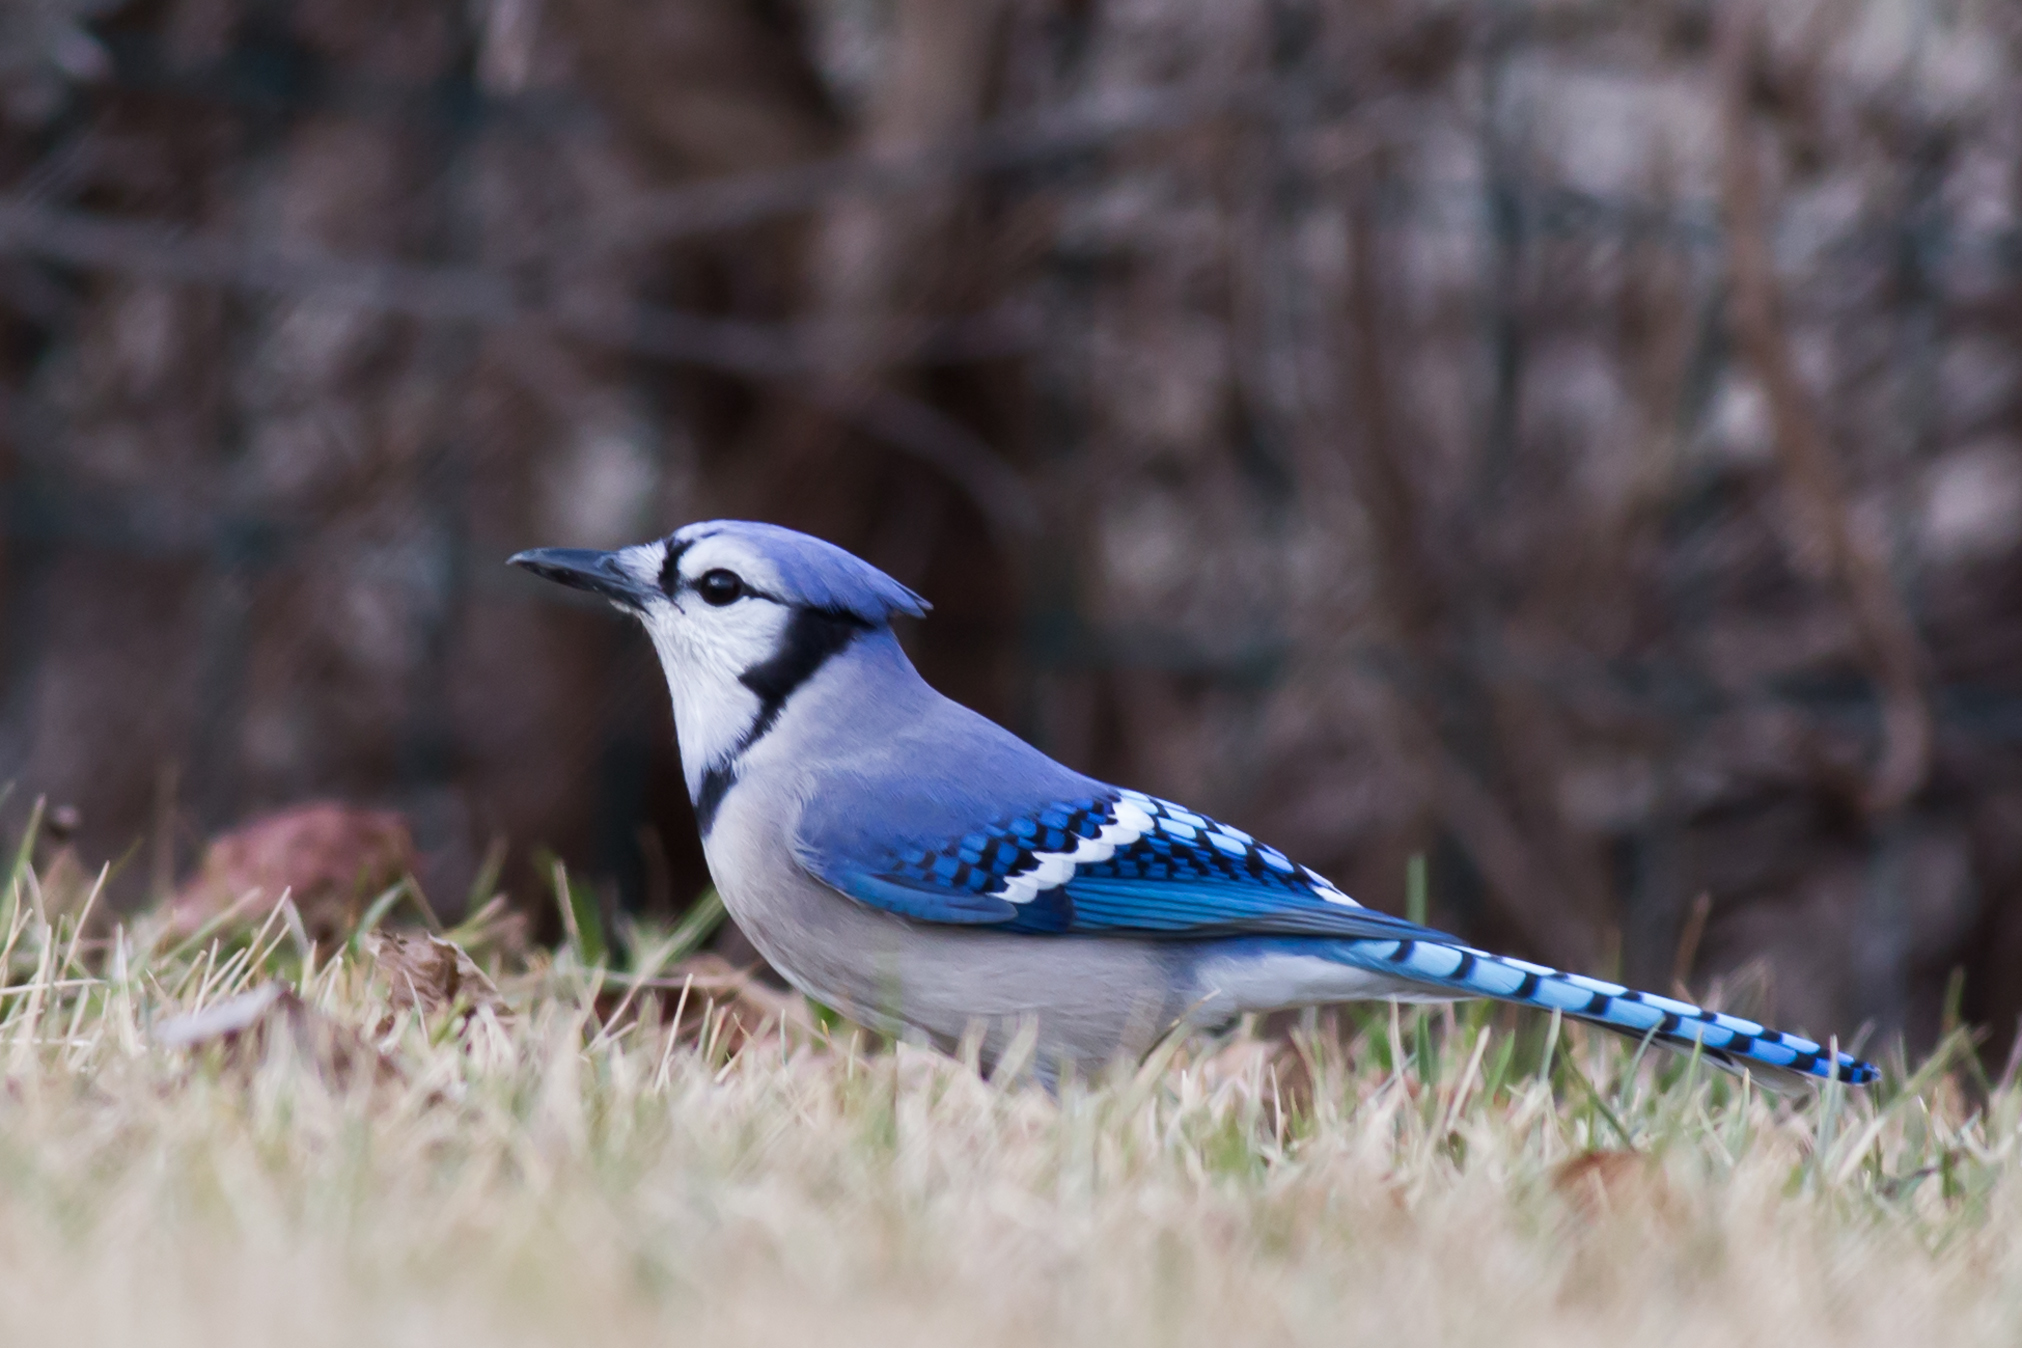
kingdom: Animalia
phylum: Chordata
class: Aves
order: Passeriformes
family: Corvidae
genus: Cyanocitta
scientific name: Cyanocitta cristata
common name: Blue jay
